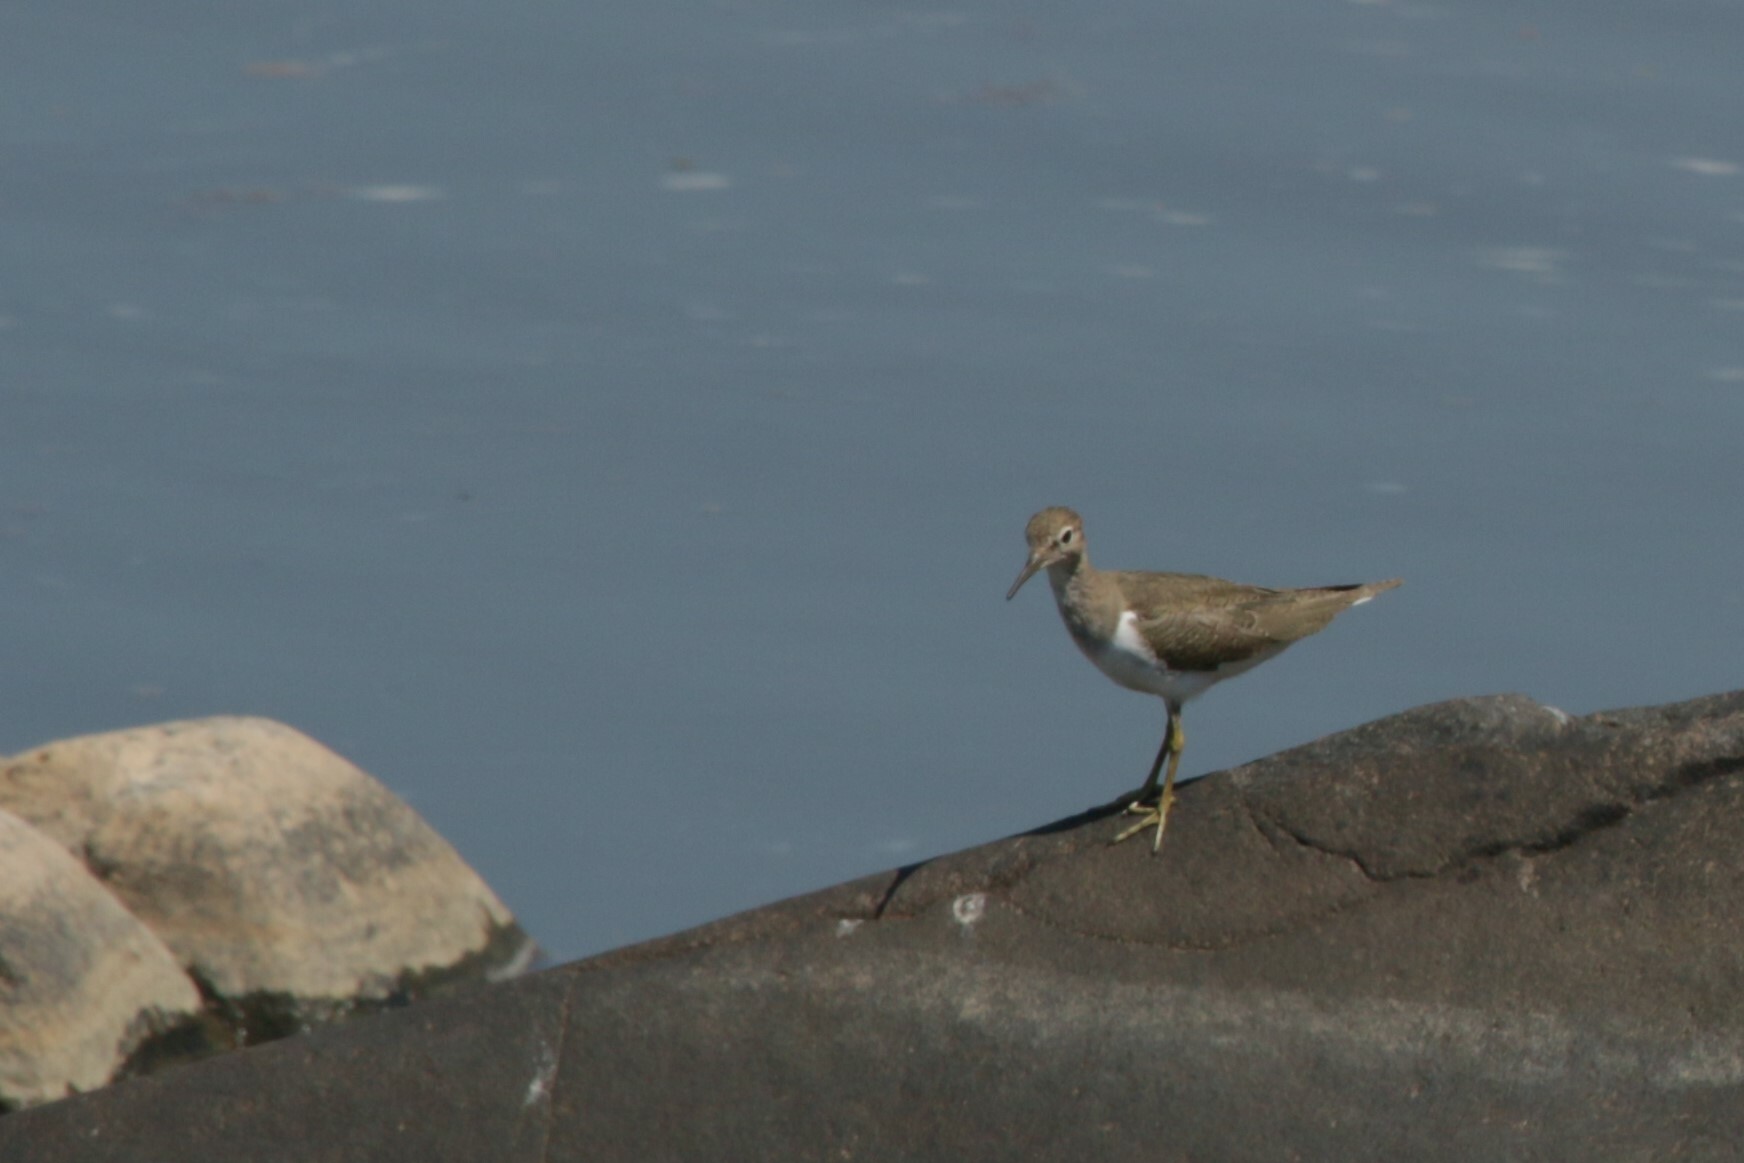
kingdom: Animalia
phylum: Chordata
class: Aves
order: Charadriiformes
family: Scolopacidae
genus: Actitis
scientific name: Actitis hypoleucos
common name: Common sandpiper
